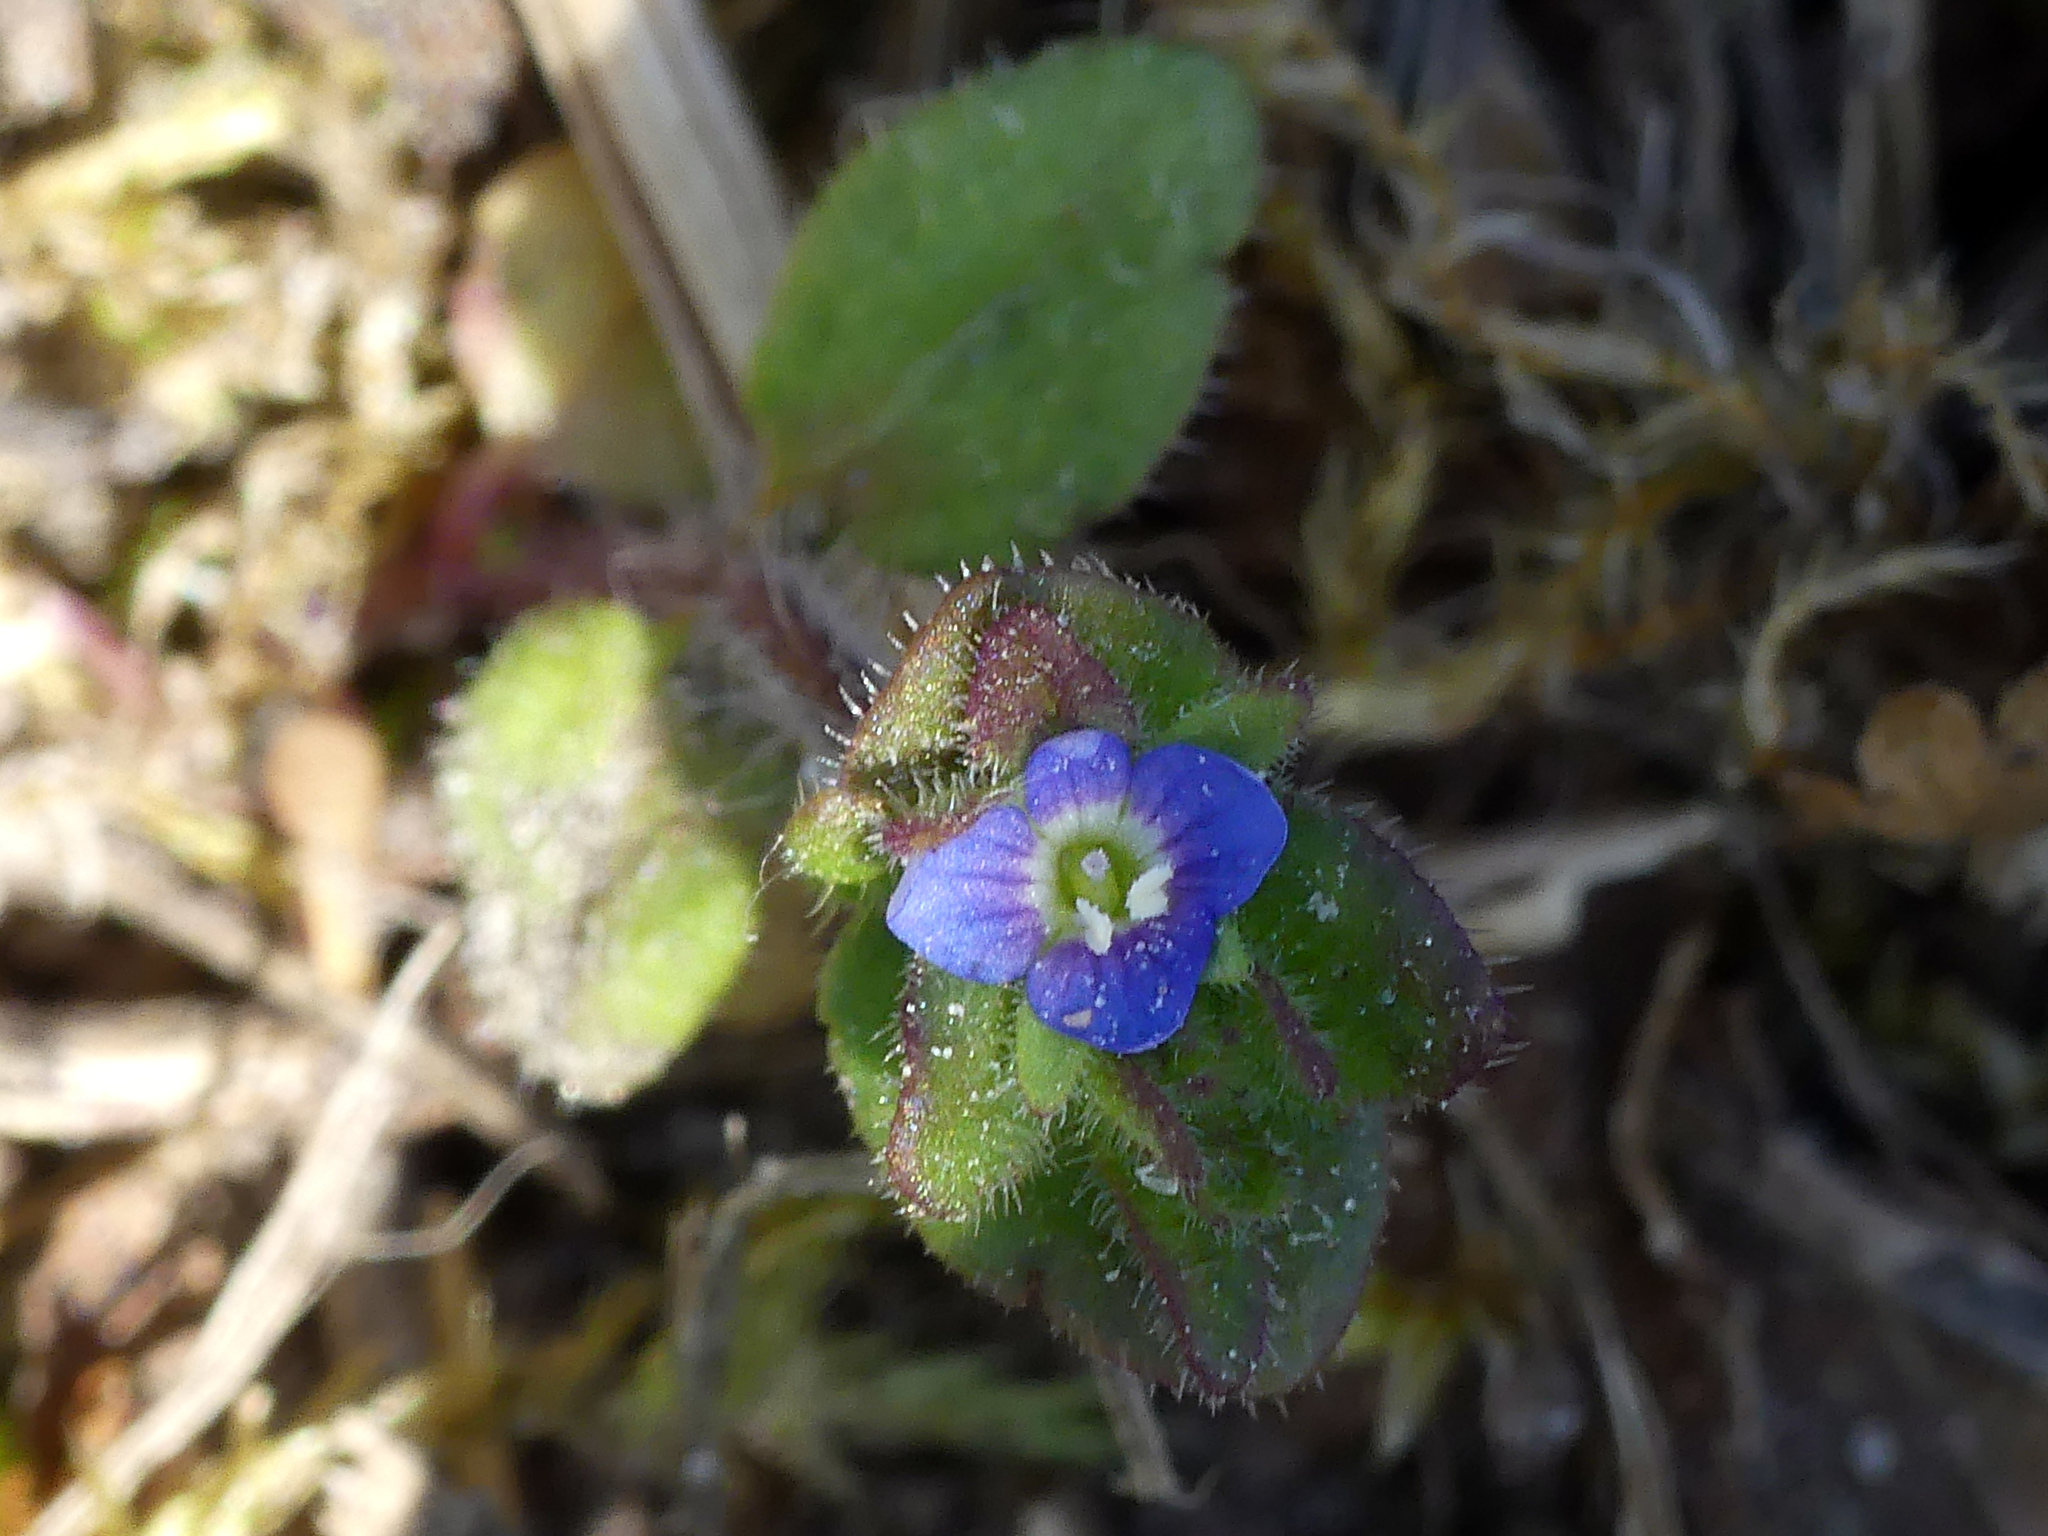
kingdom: Plantae
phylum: Tracheophyta
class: Magnoliopsida
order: Lamiales
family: Plantaginaceae
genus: Veronica
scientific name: Veronica arvensis
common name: Corn speedwell
